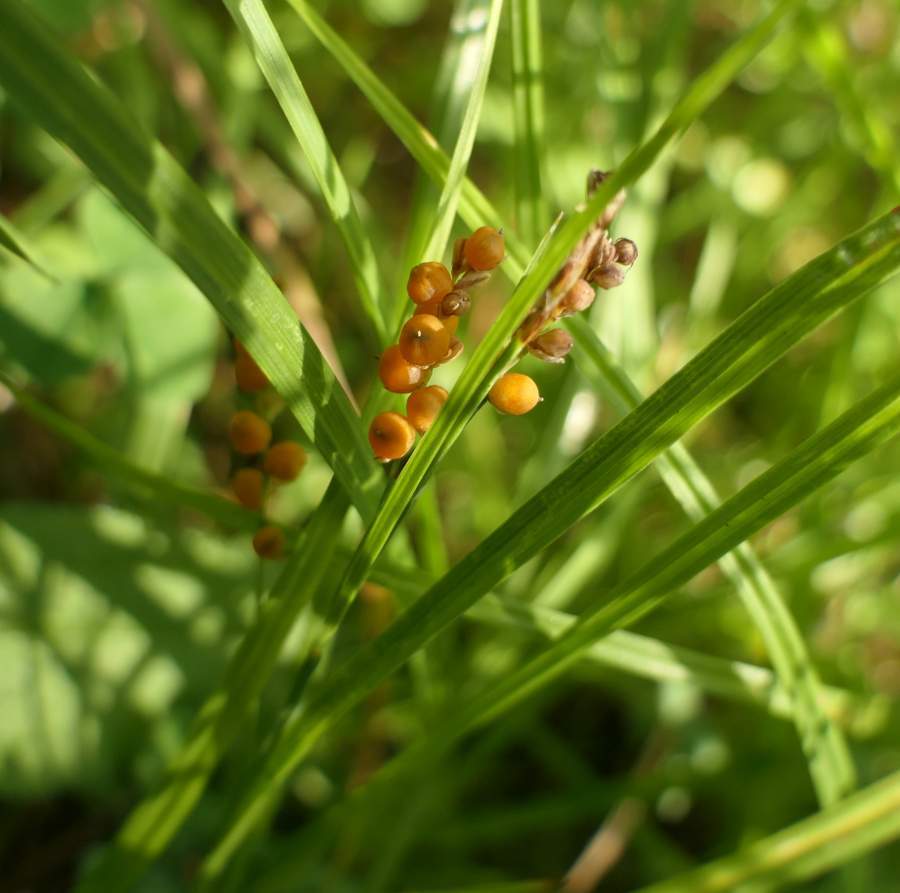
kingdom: Plantae
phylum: Tracheophyta
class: Liliopsida
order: Poales
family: Cyperaceae
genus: Carex
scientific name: Carex aurea
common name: Golden sedge
